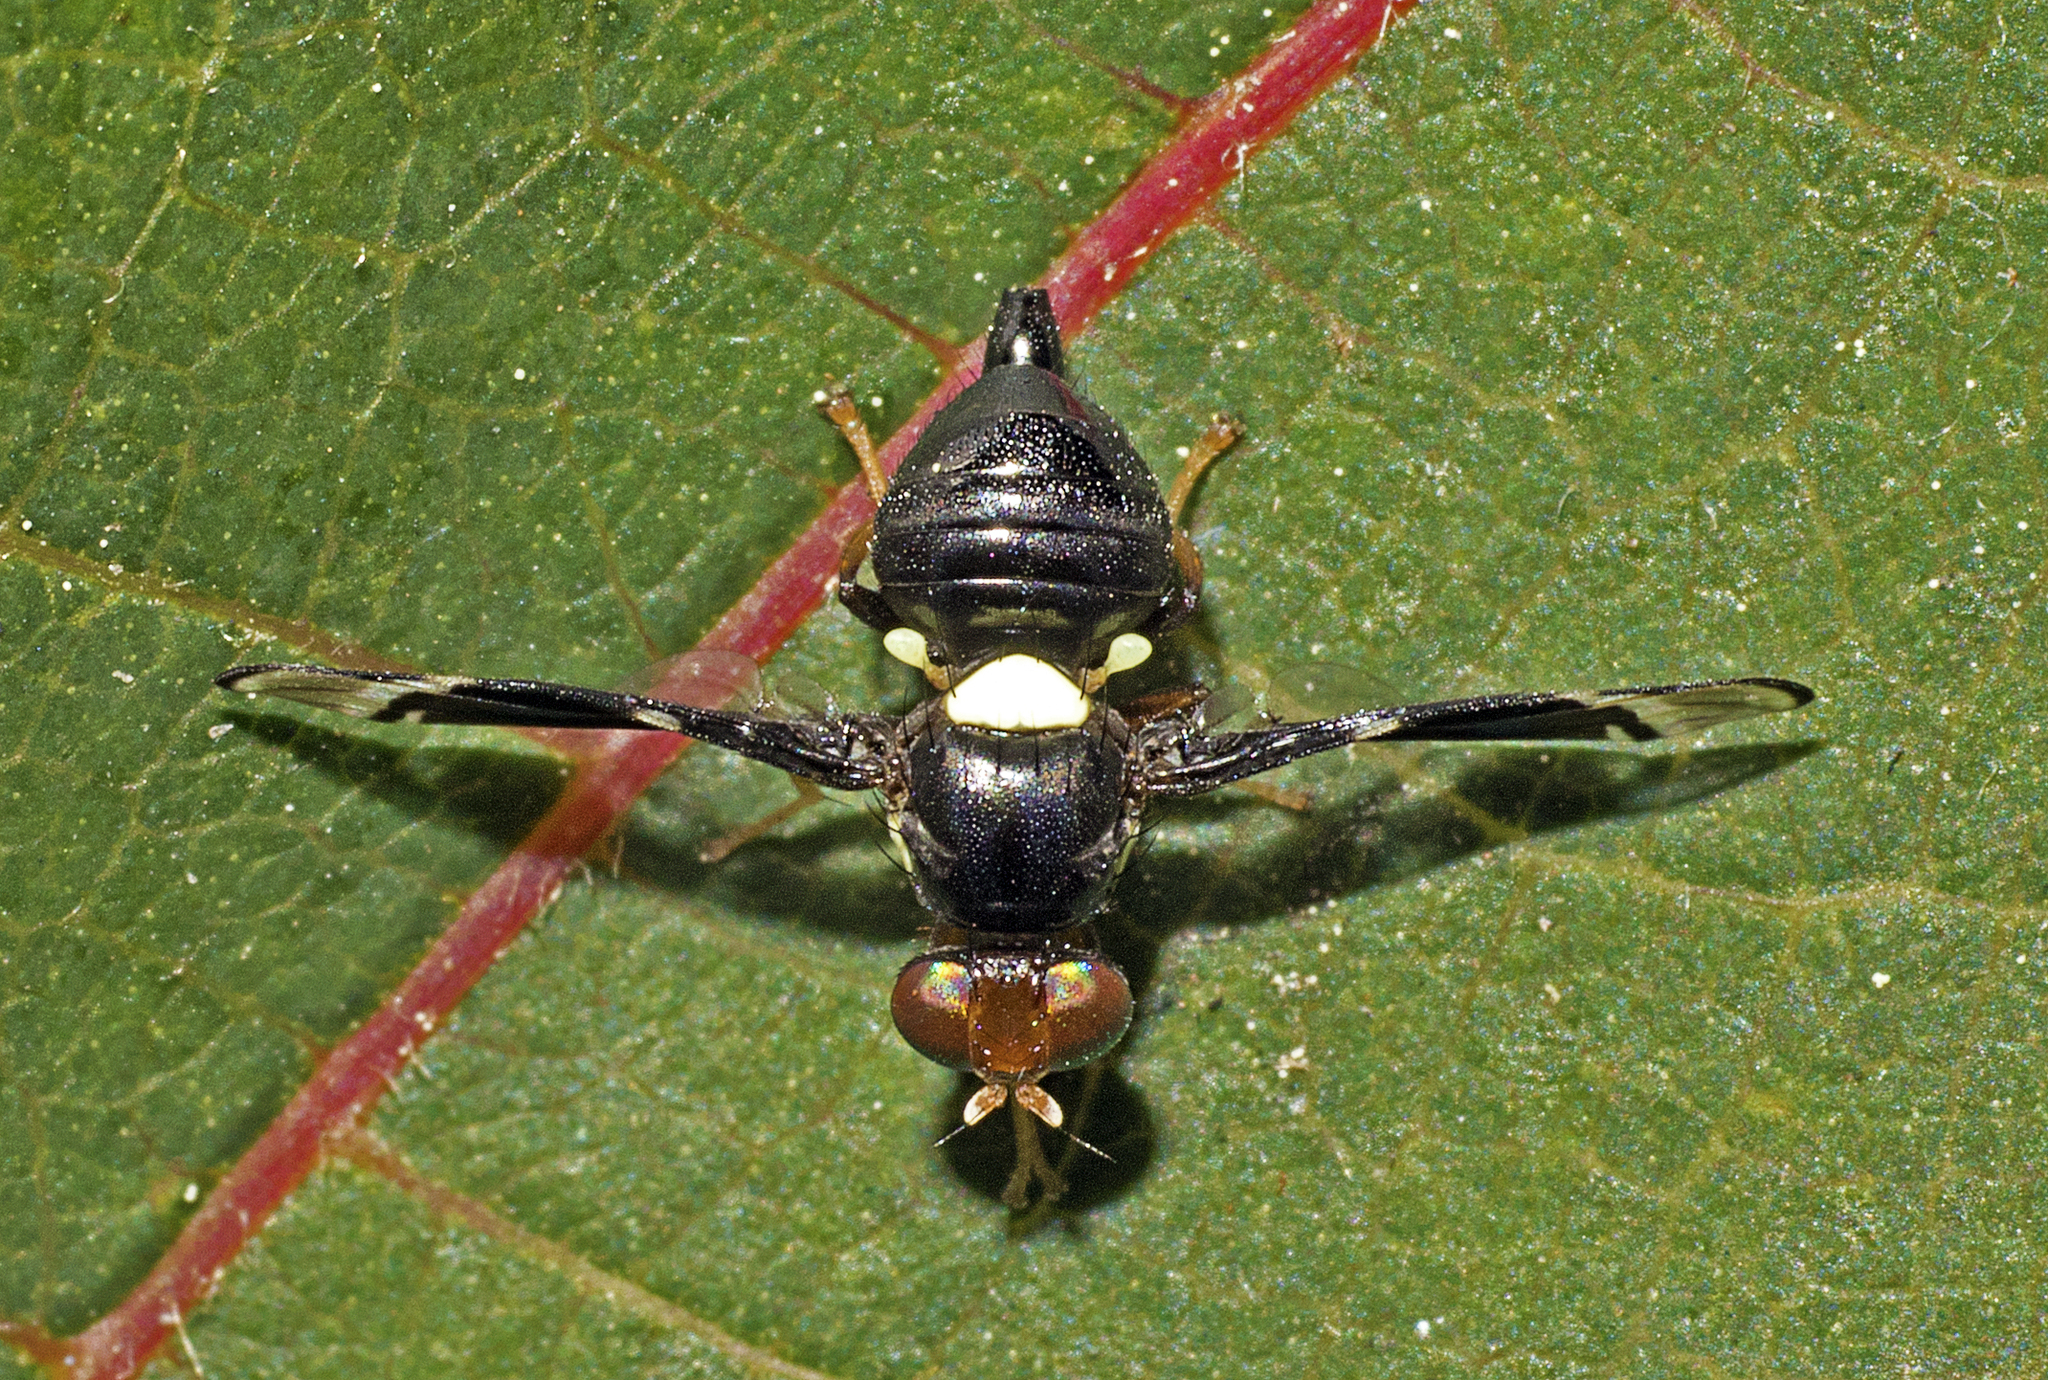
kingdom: Animalia
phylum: Arthropoda
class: Insecta
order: Diptera
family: Tephritidae
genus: Calosphenisca
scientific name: Calosphenisca
